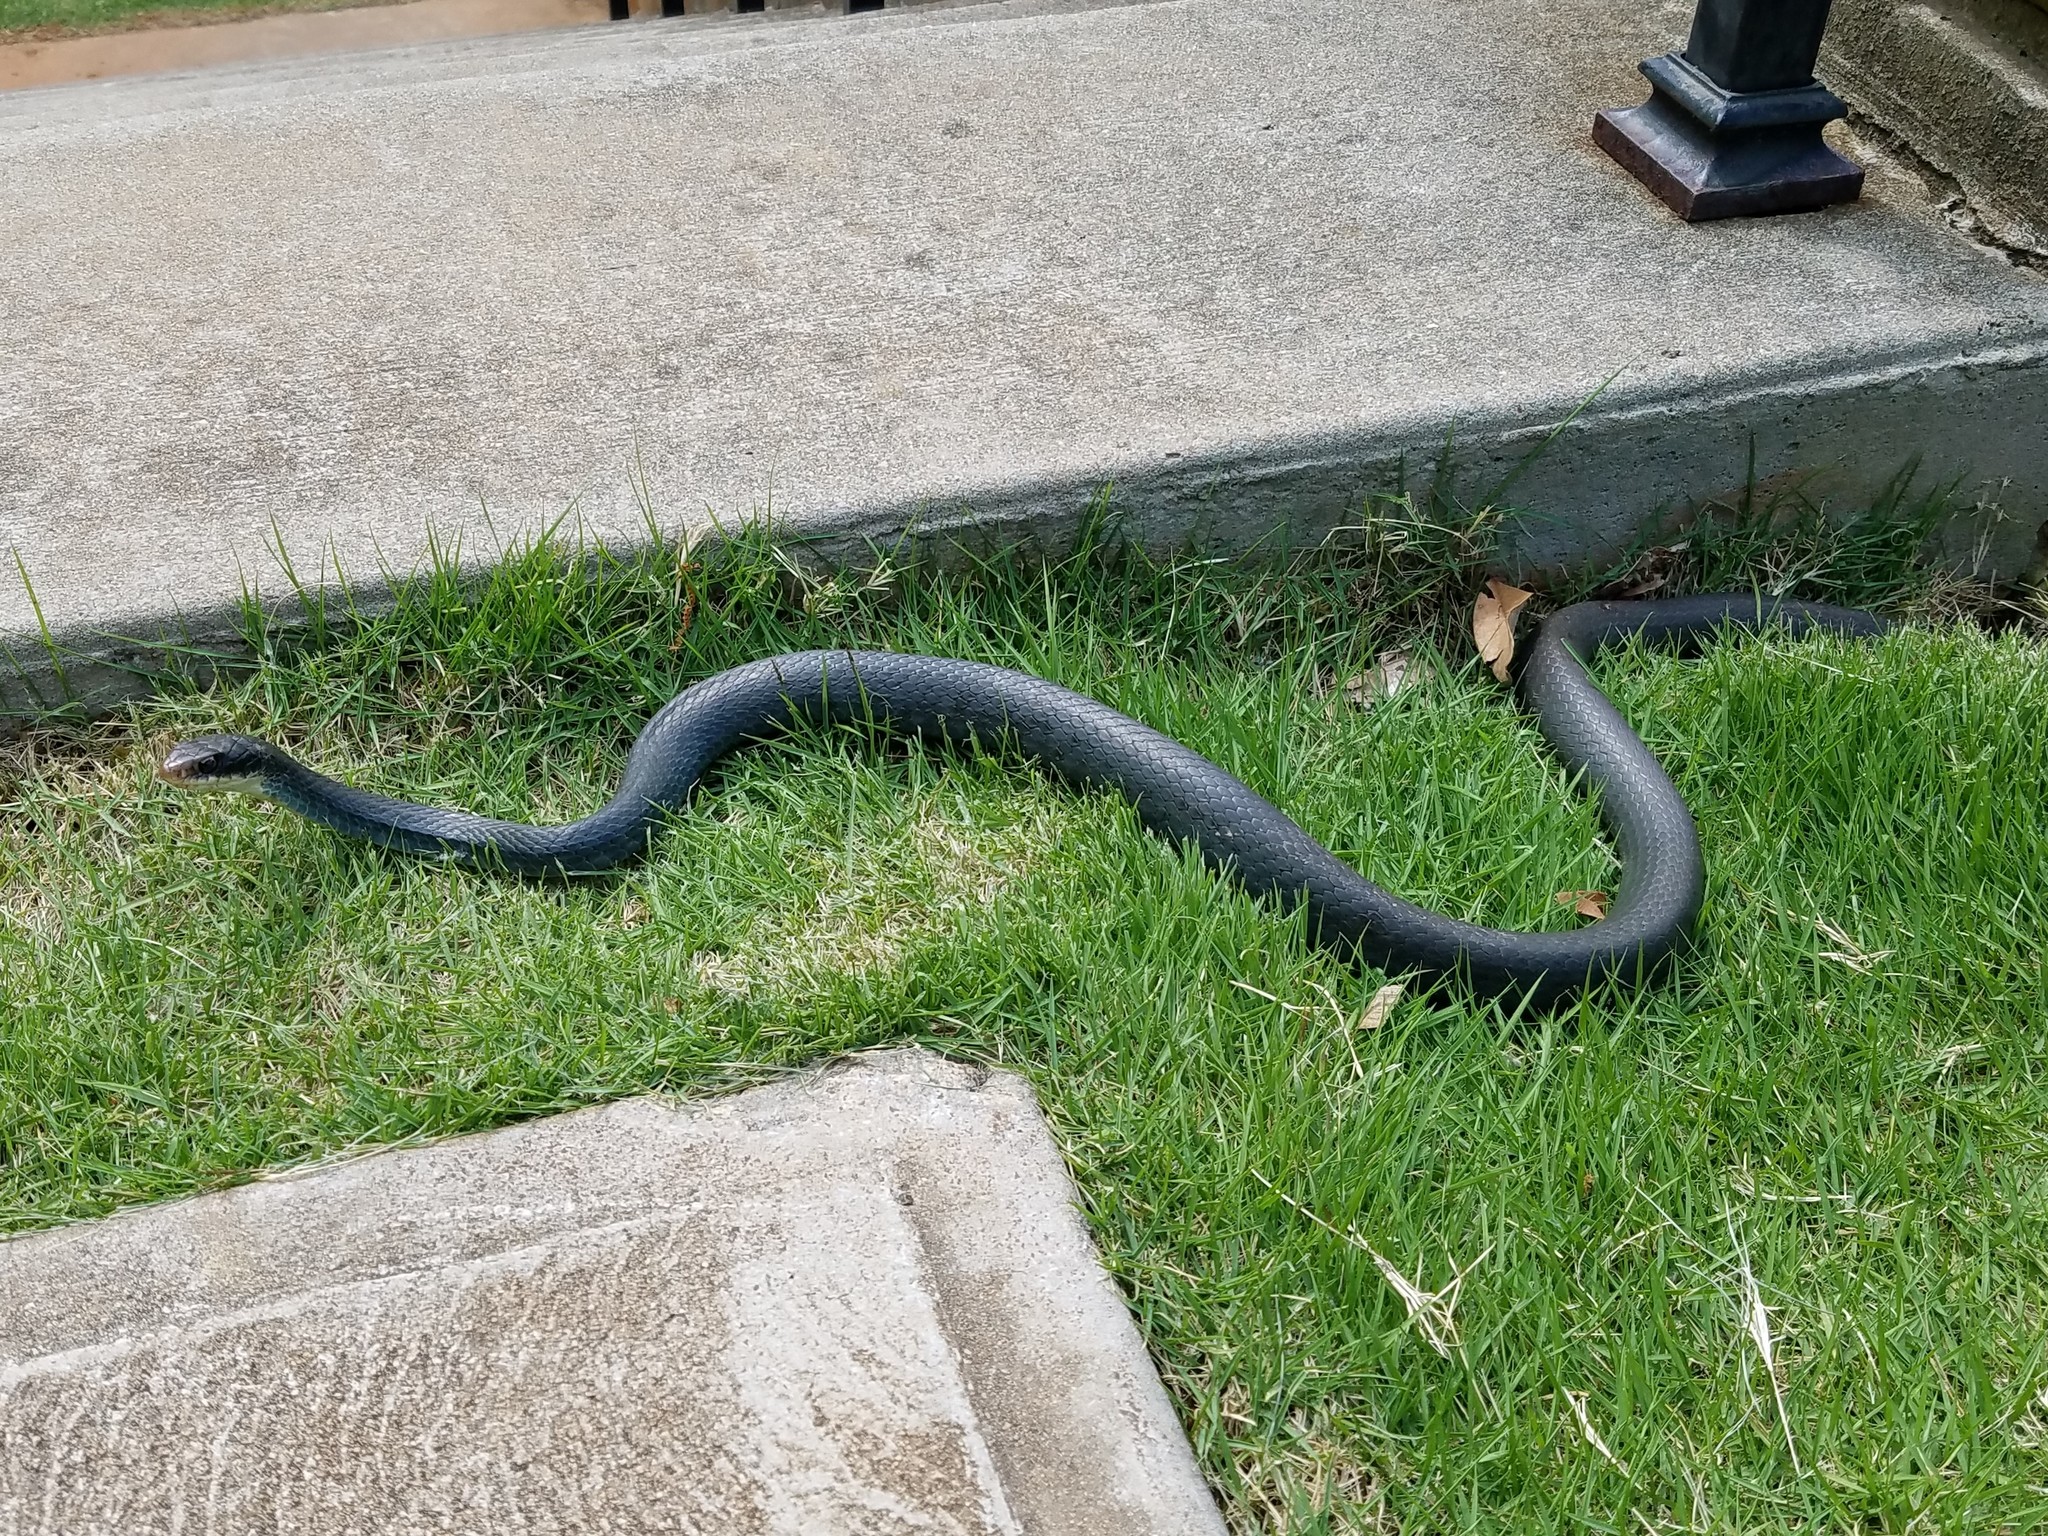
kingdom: Animalia
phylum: Chordata
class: Squamata
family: Colubridae
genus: Coluber
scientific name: Coluber constrictor
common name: Eastern racer
